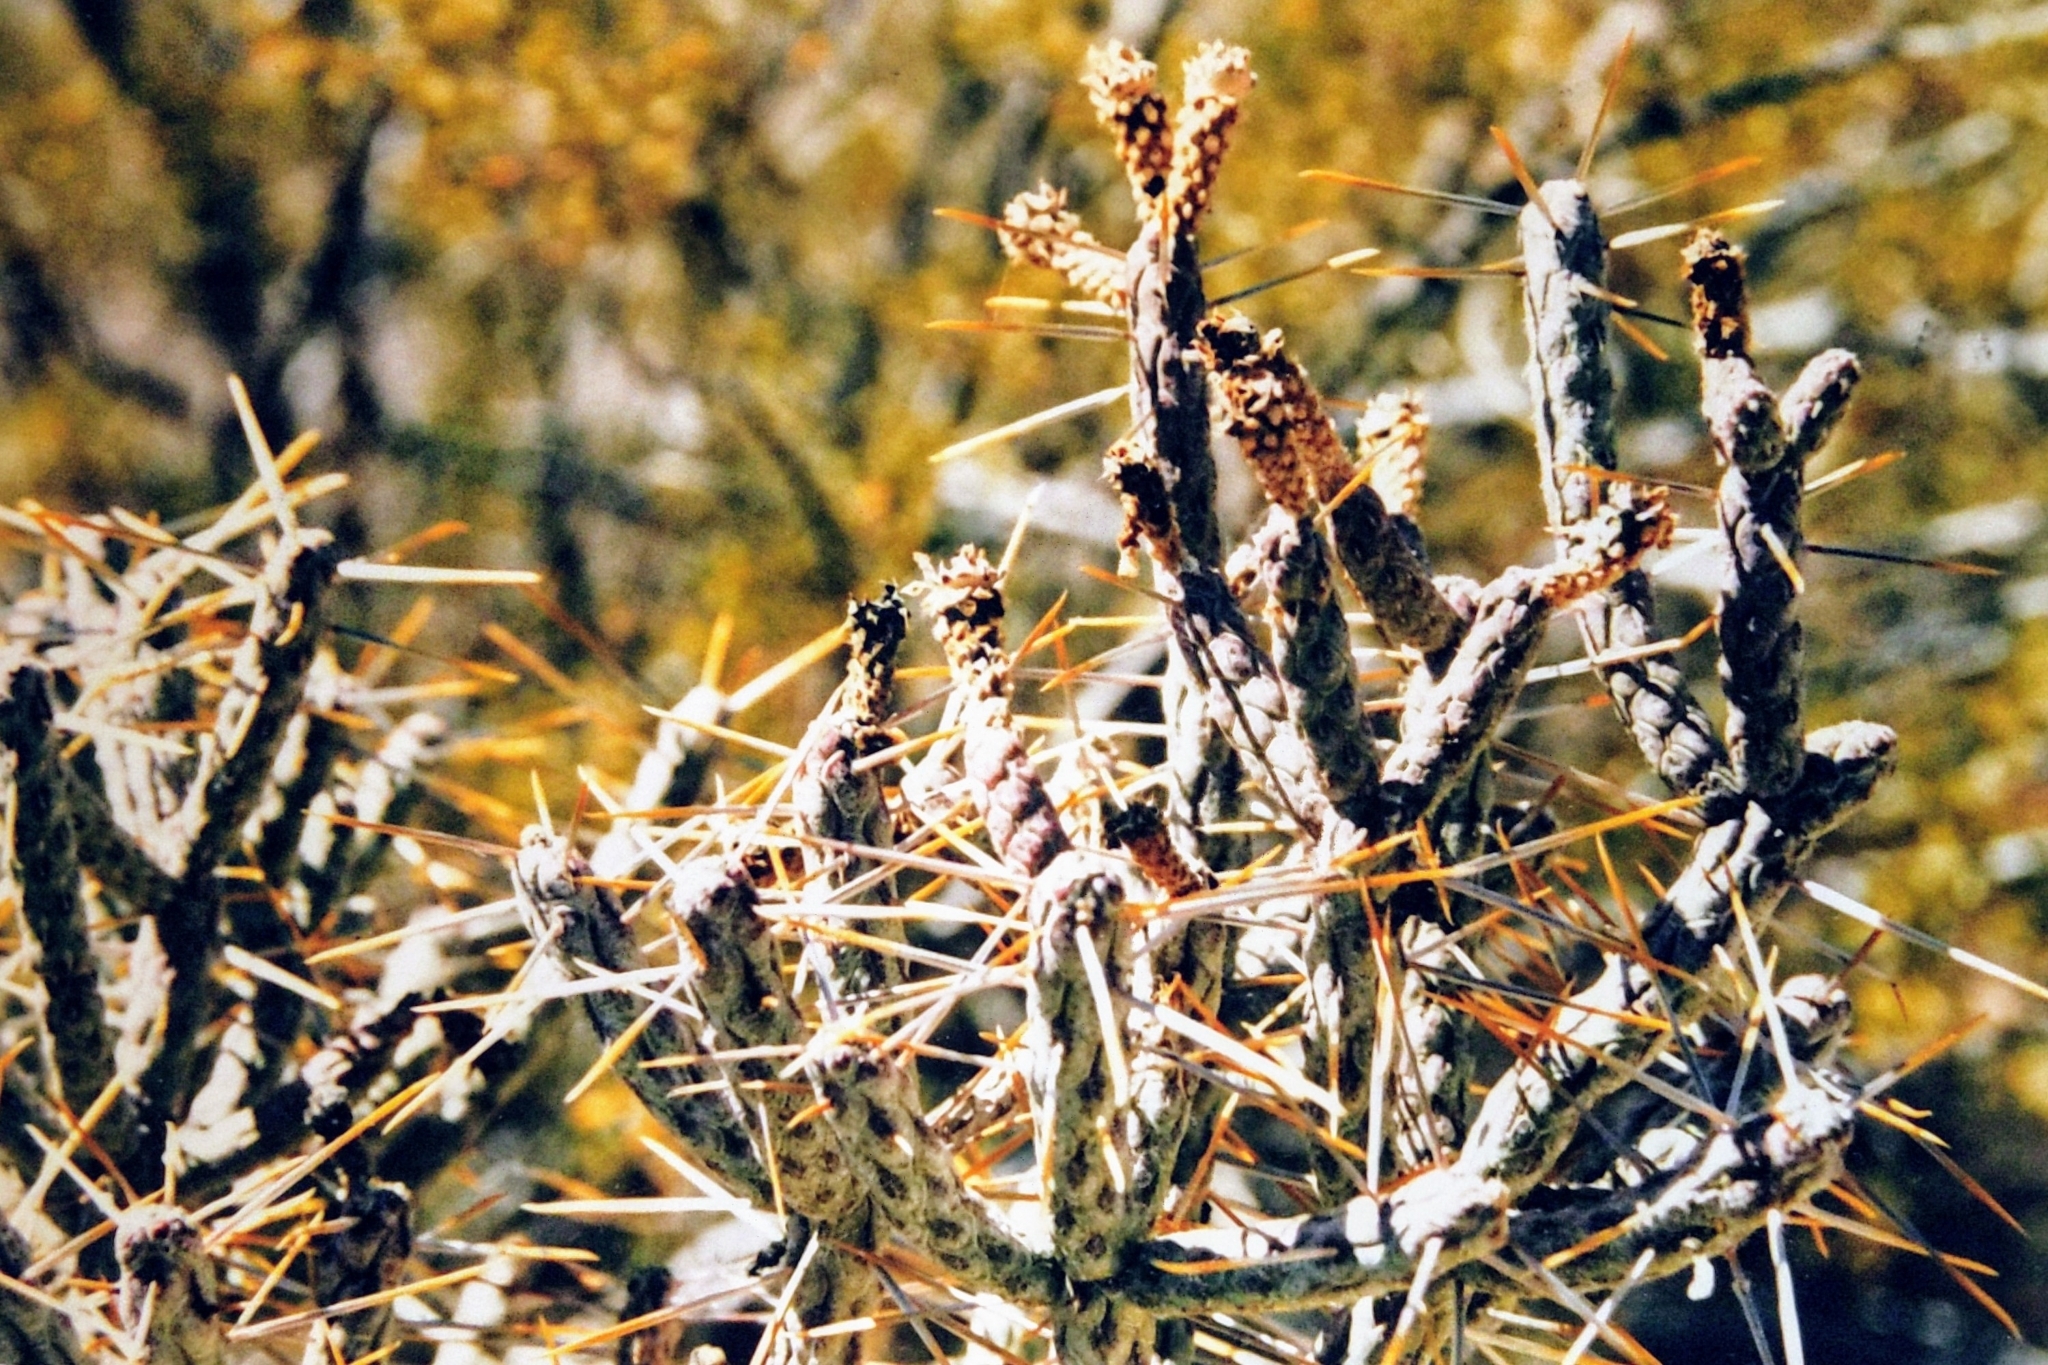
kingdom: Plantae
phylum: Tracheophyta
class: Magnoliopsida
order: Caryophyllales
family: Cactaceae
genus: Cylindropuntia
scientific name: Cylindropuntia ramosissima
